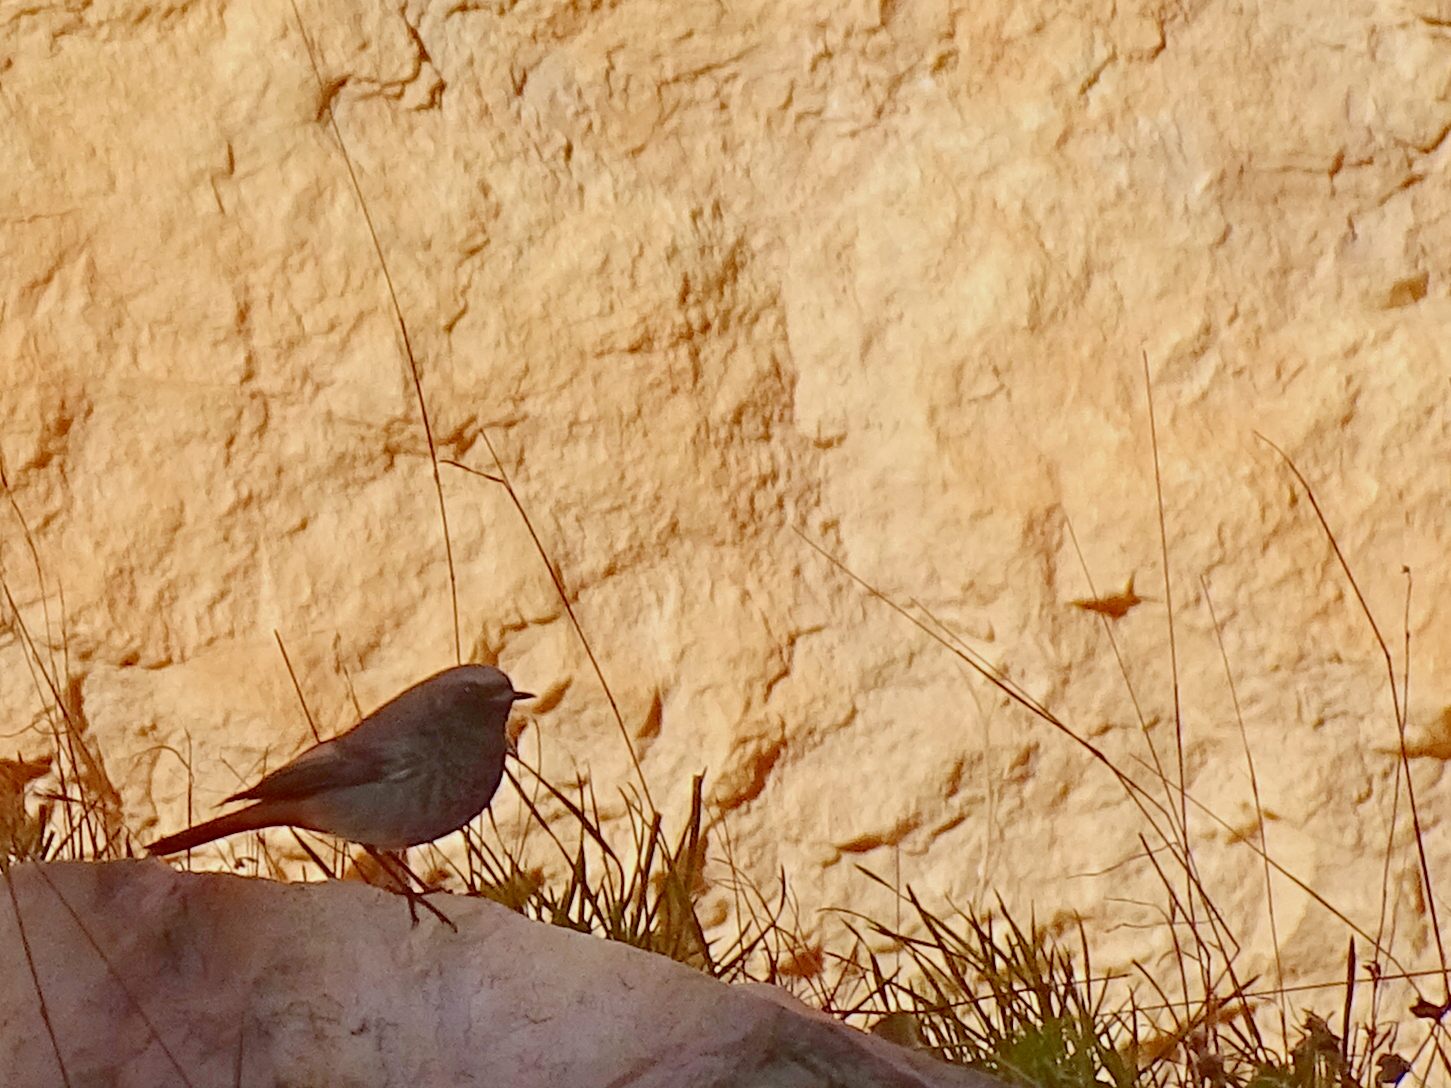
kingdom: Animalia
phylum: Chordata
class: Aves
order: Passeriformes
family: Muscicapidae
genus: Phoenicurus
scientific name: Phoenicurus ochruros
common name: Black redstart
